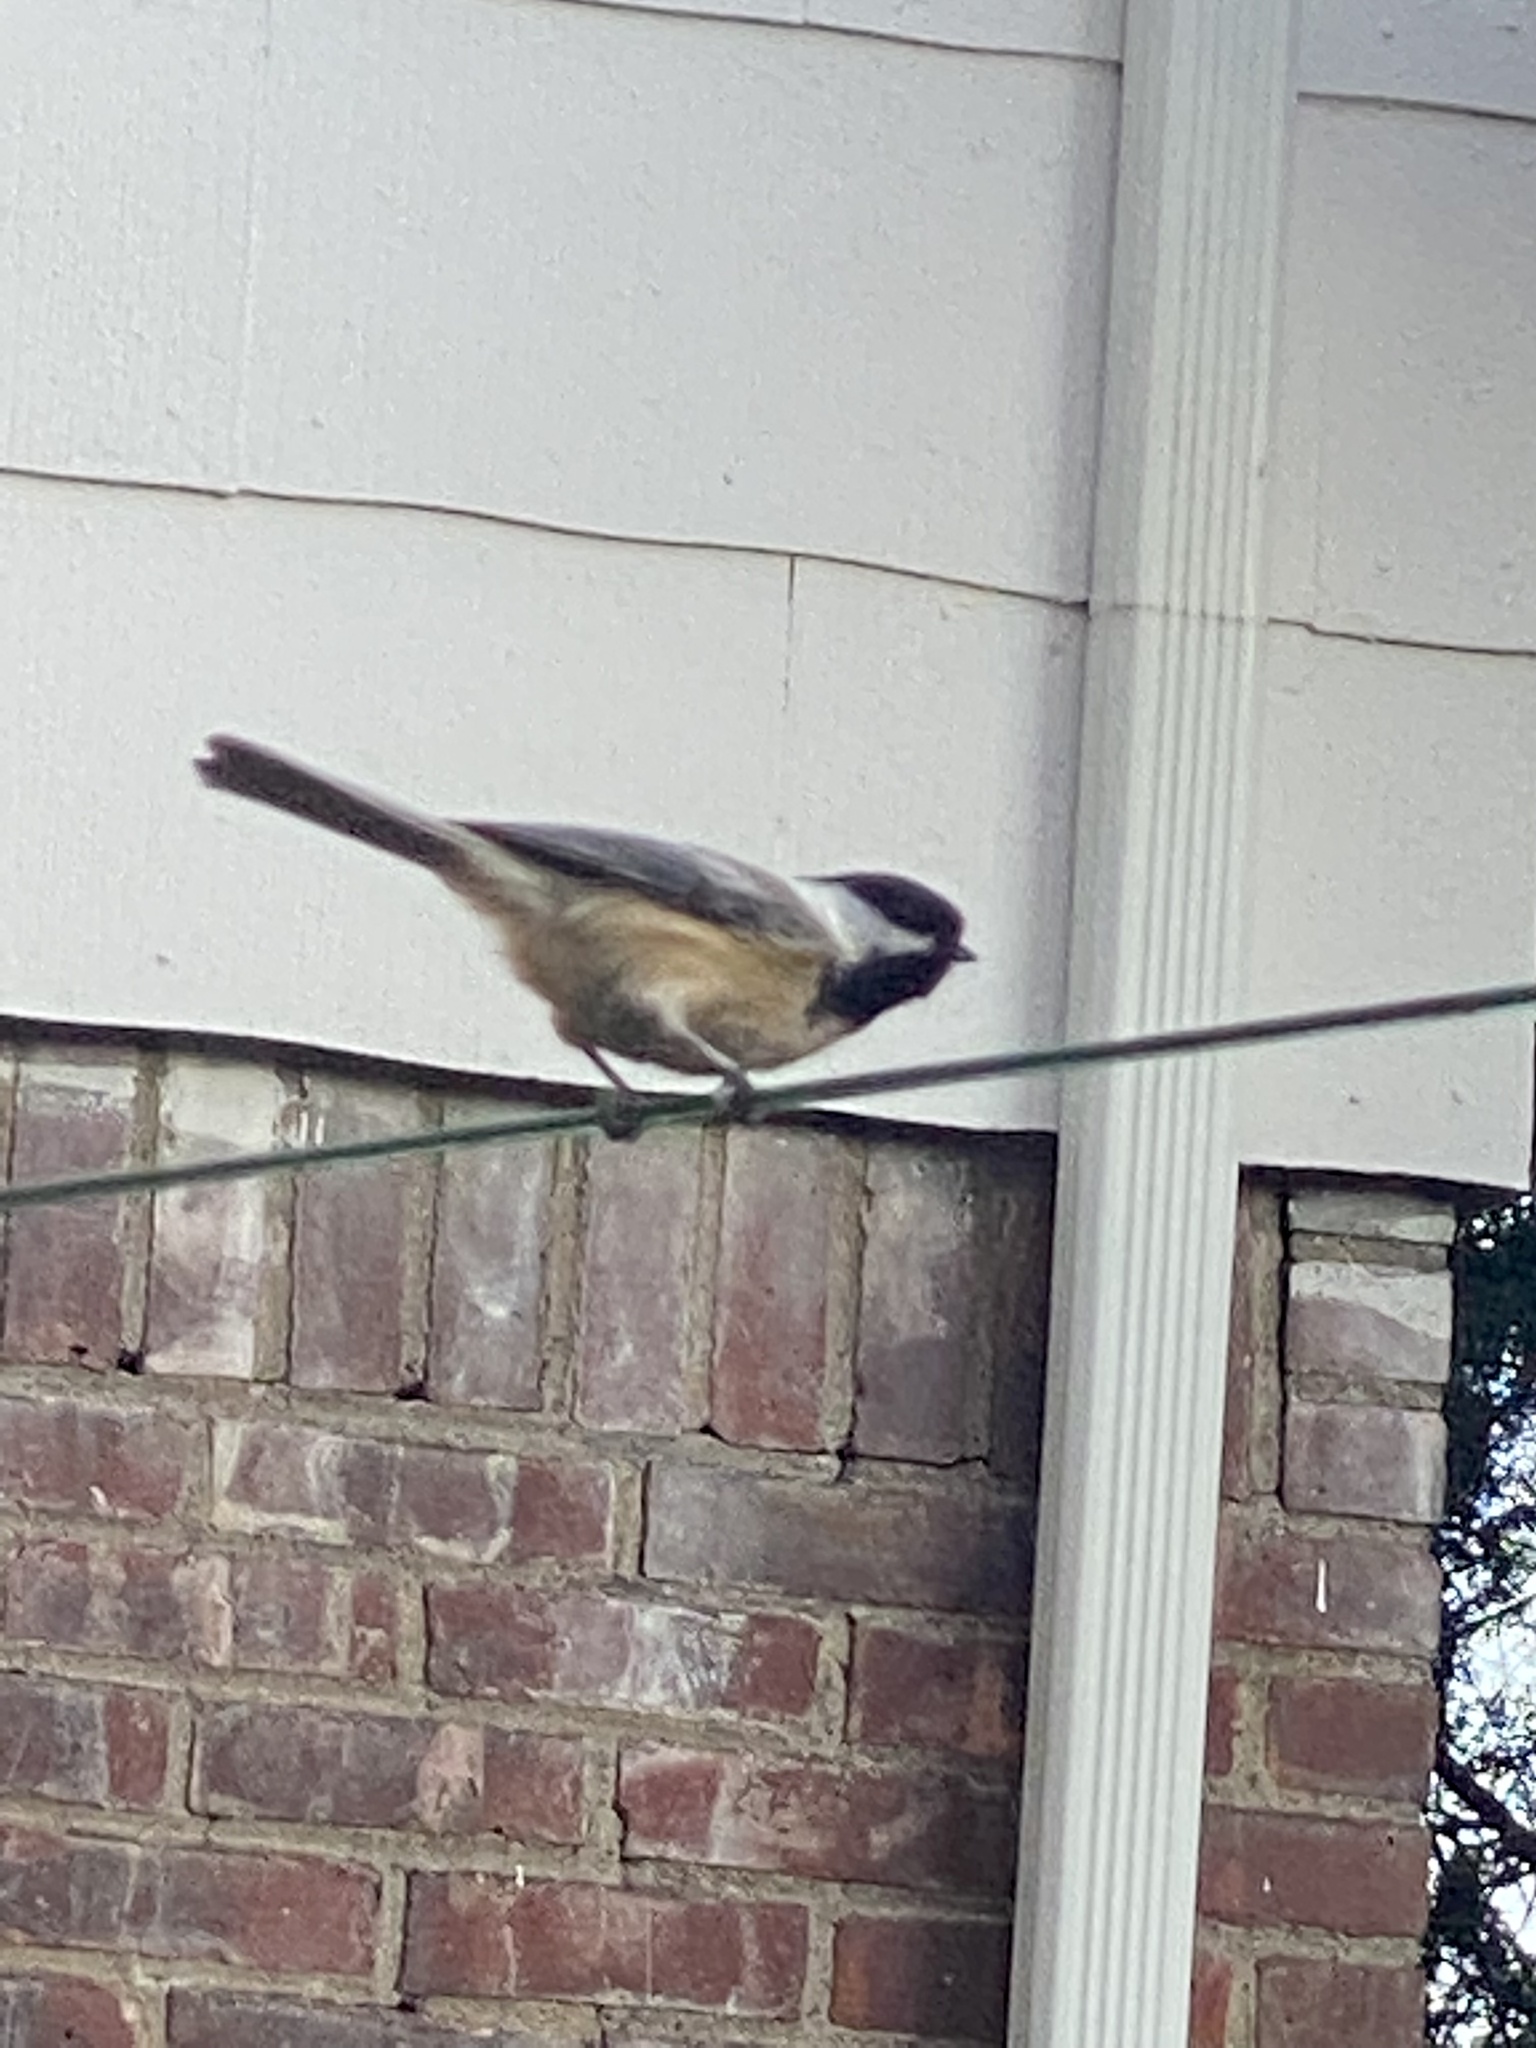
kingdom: Animalia
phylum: Chordata
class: Aves
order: Passeriformes
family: Paridae
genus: Poecile
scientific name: Poecile atricapillus
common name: Black-capped chickadee
